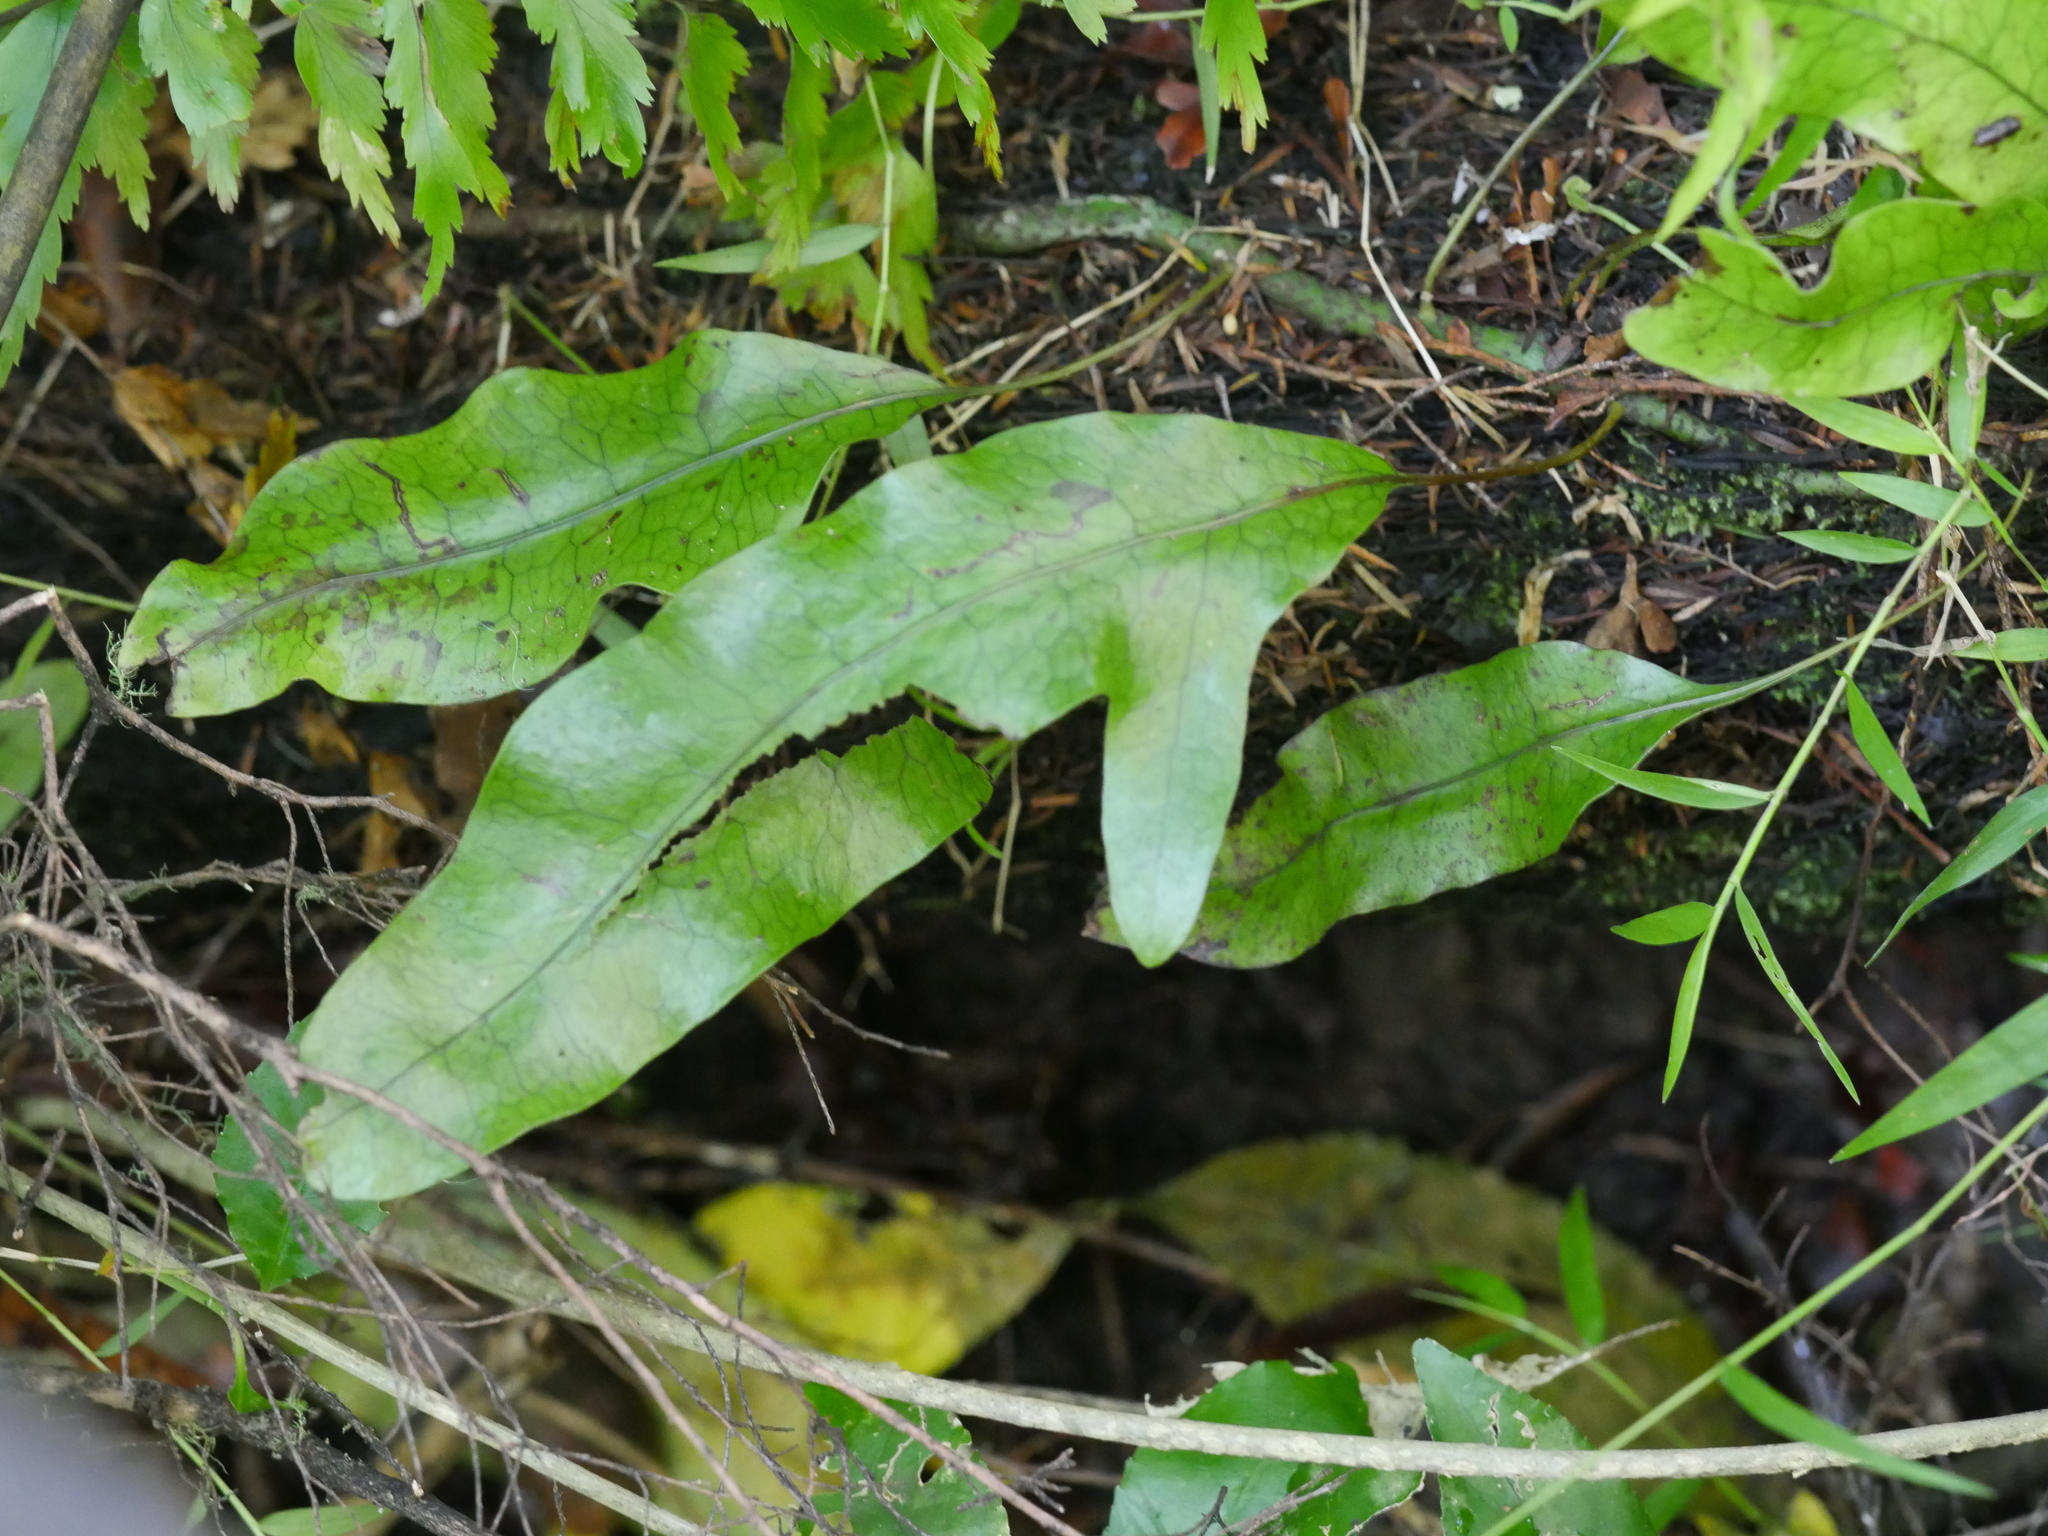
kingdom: Plantae
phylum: Tracheophyta
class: Polypodiopsida
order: Polypodiales
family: Polypodiaceae
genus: Lecanopteris
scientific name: Lecanopteris pustulata
